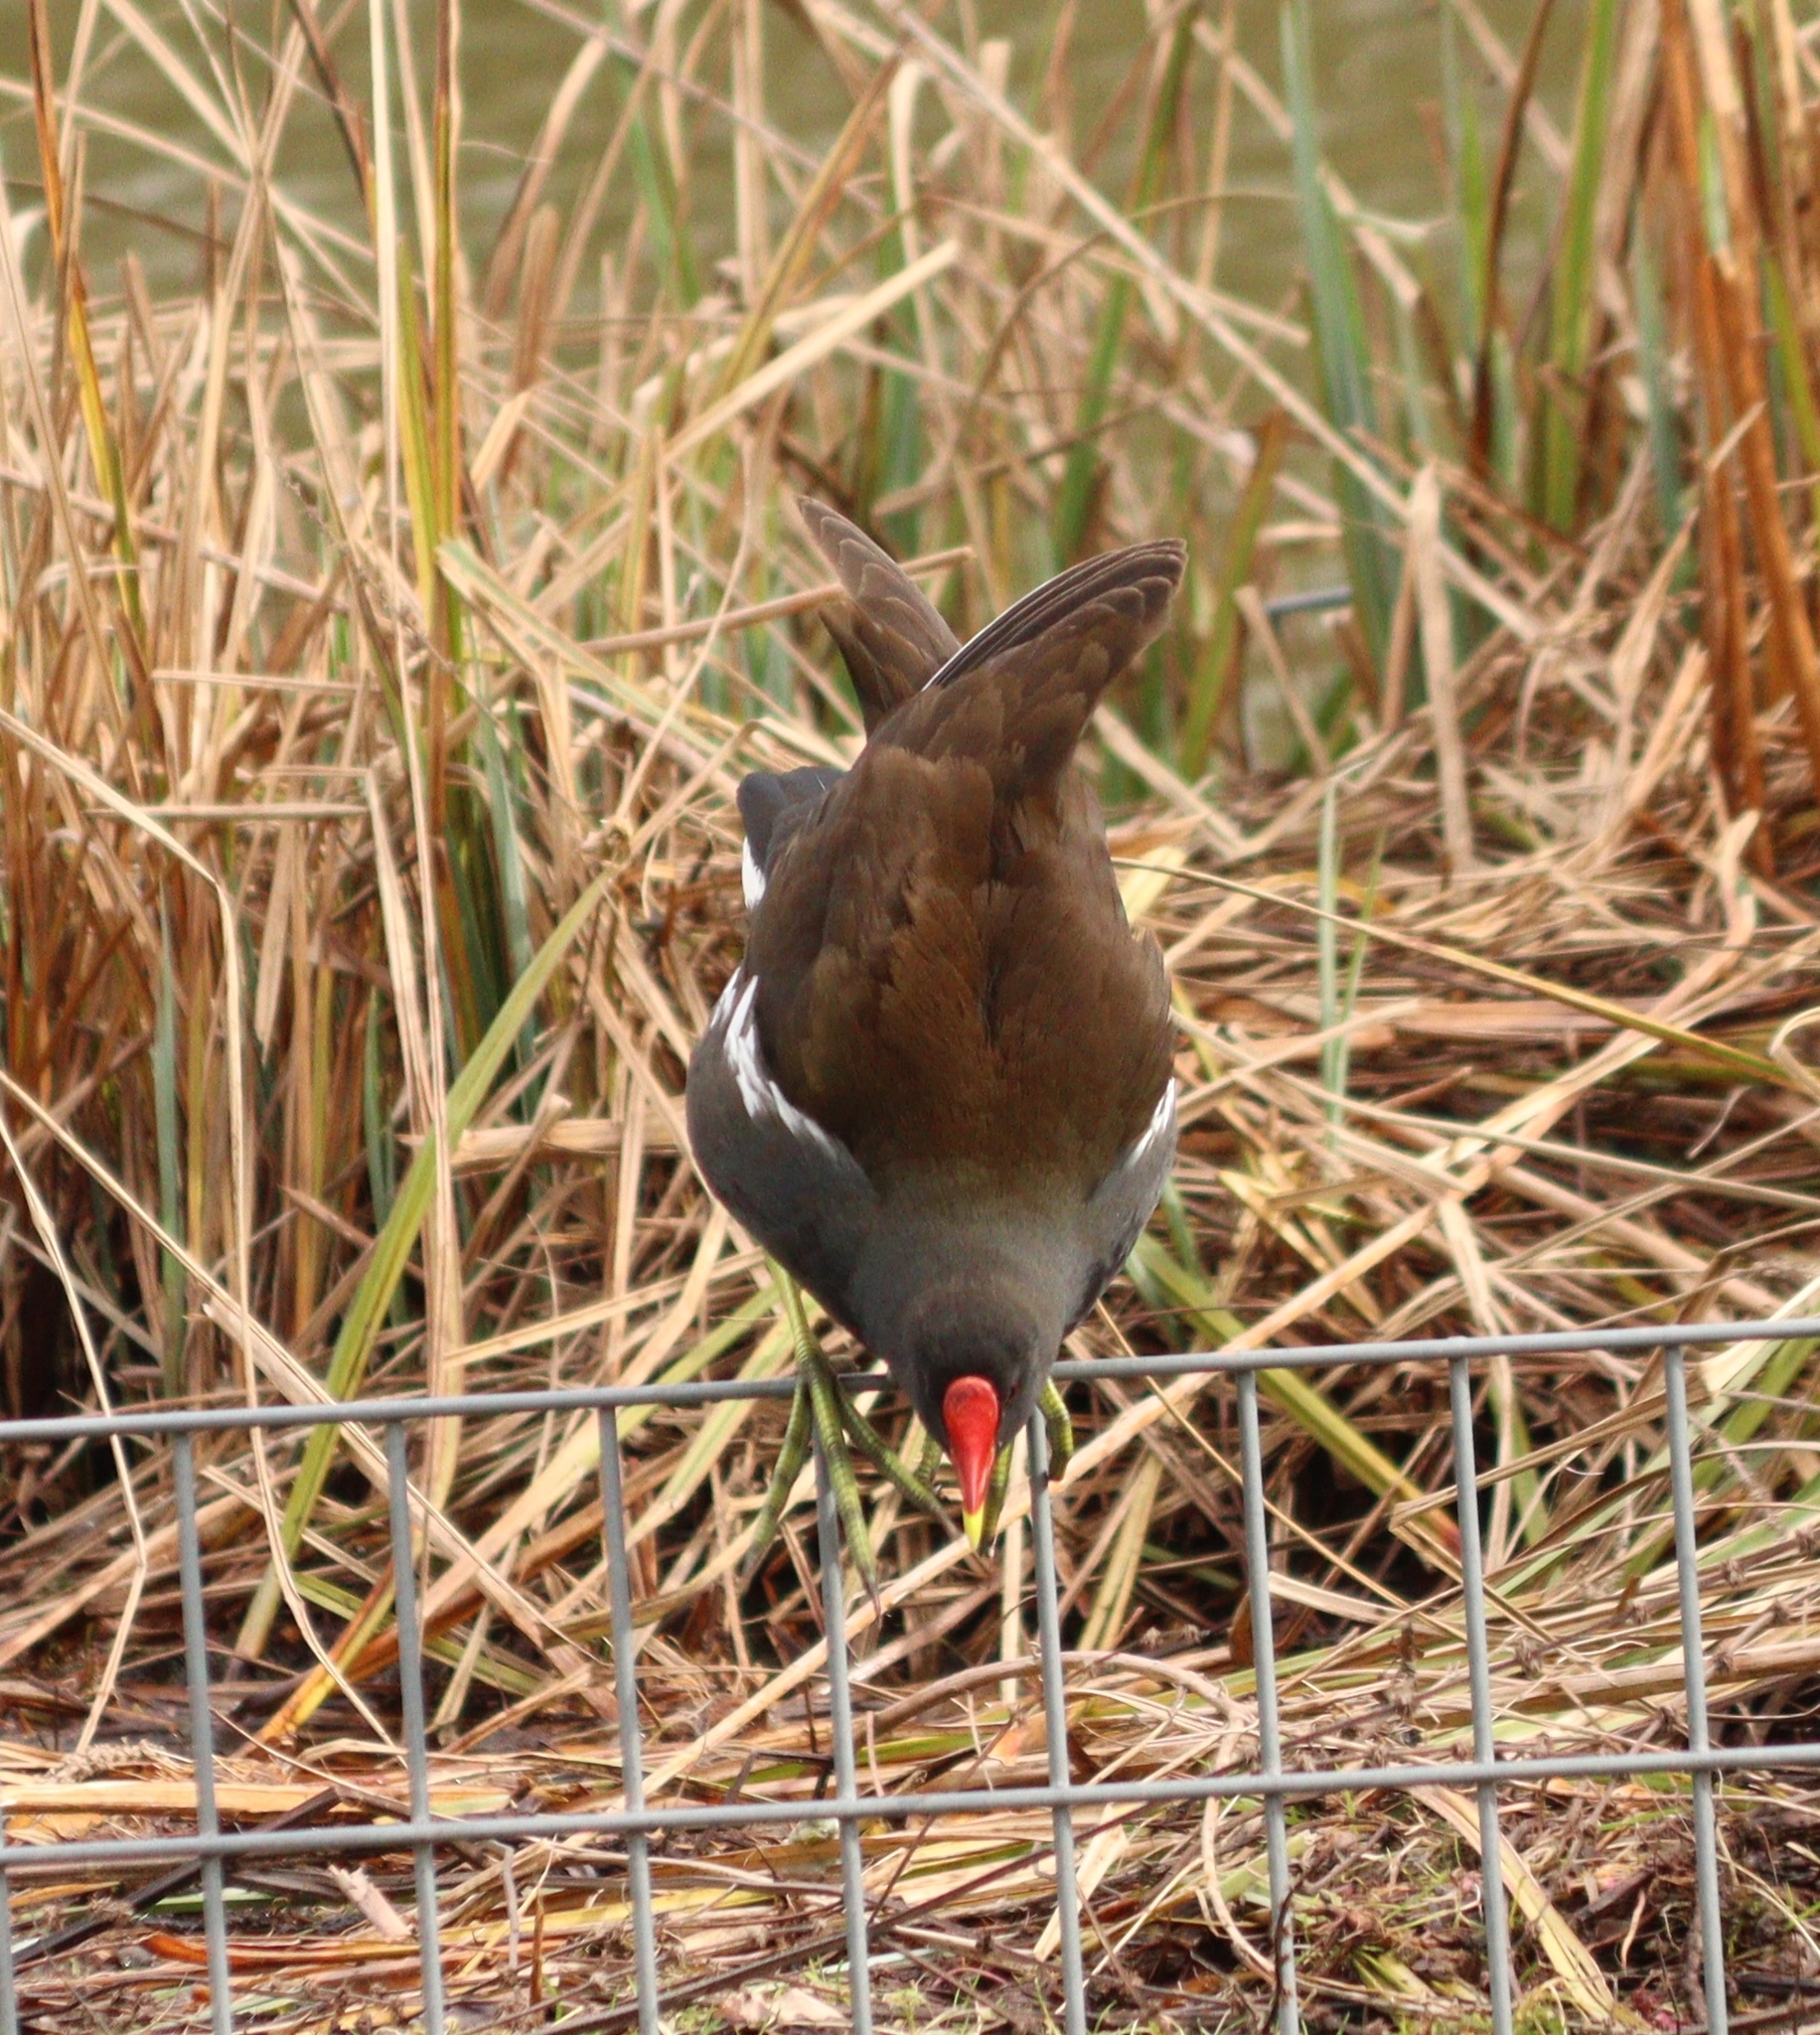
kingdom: Animalia
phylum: Chordata
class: Aves
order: Gruiformes
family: Rallidae
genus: Gallinula
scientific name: Gallinula chloropus
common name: Common moorhen
